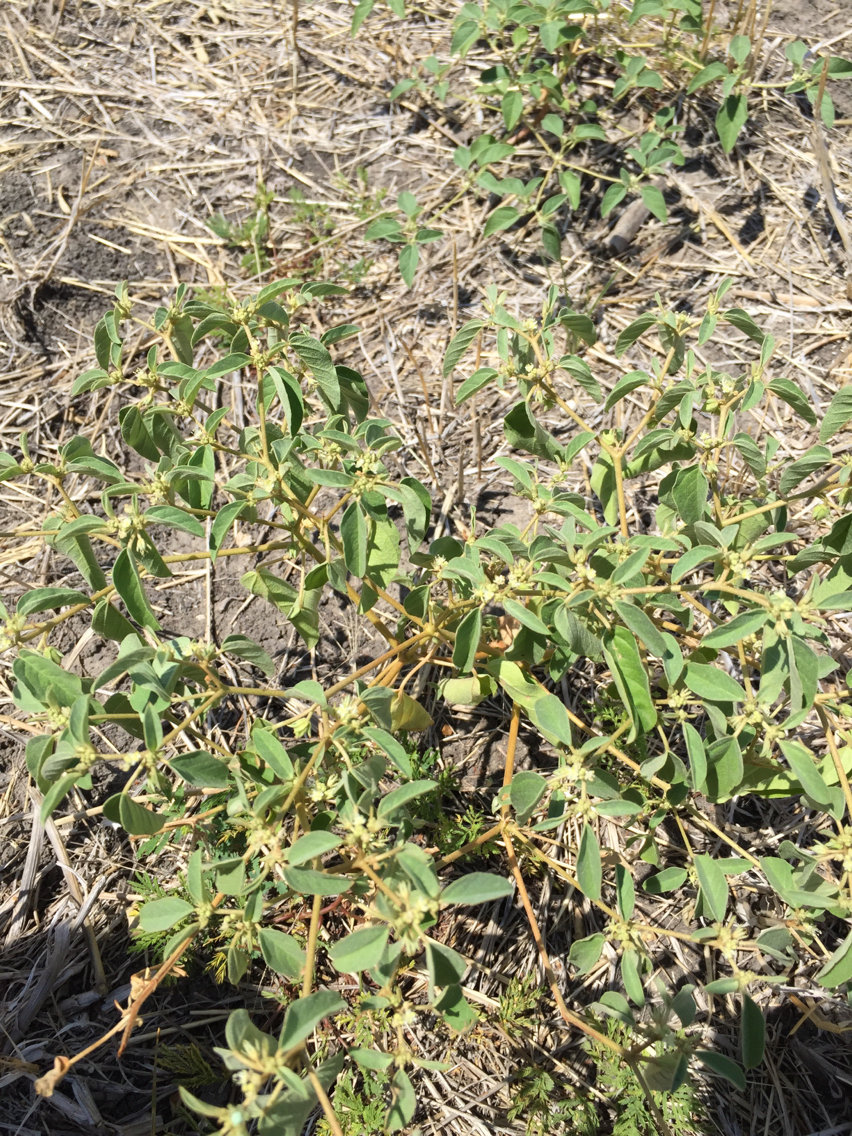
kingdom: Plantae
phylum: Tracheophyta
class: Magnoliopsida
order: Malpighiales
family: Euphorbiaceae
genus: Croton
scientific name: Croton monanthogynus
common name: One-seed croton
